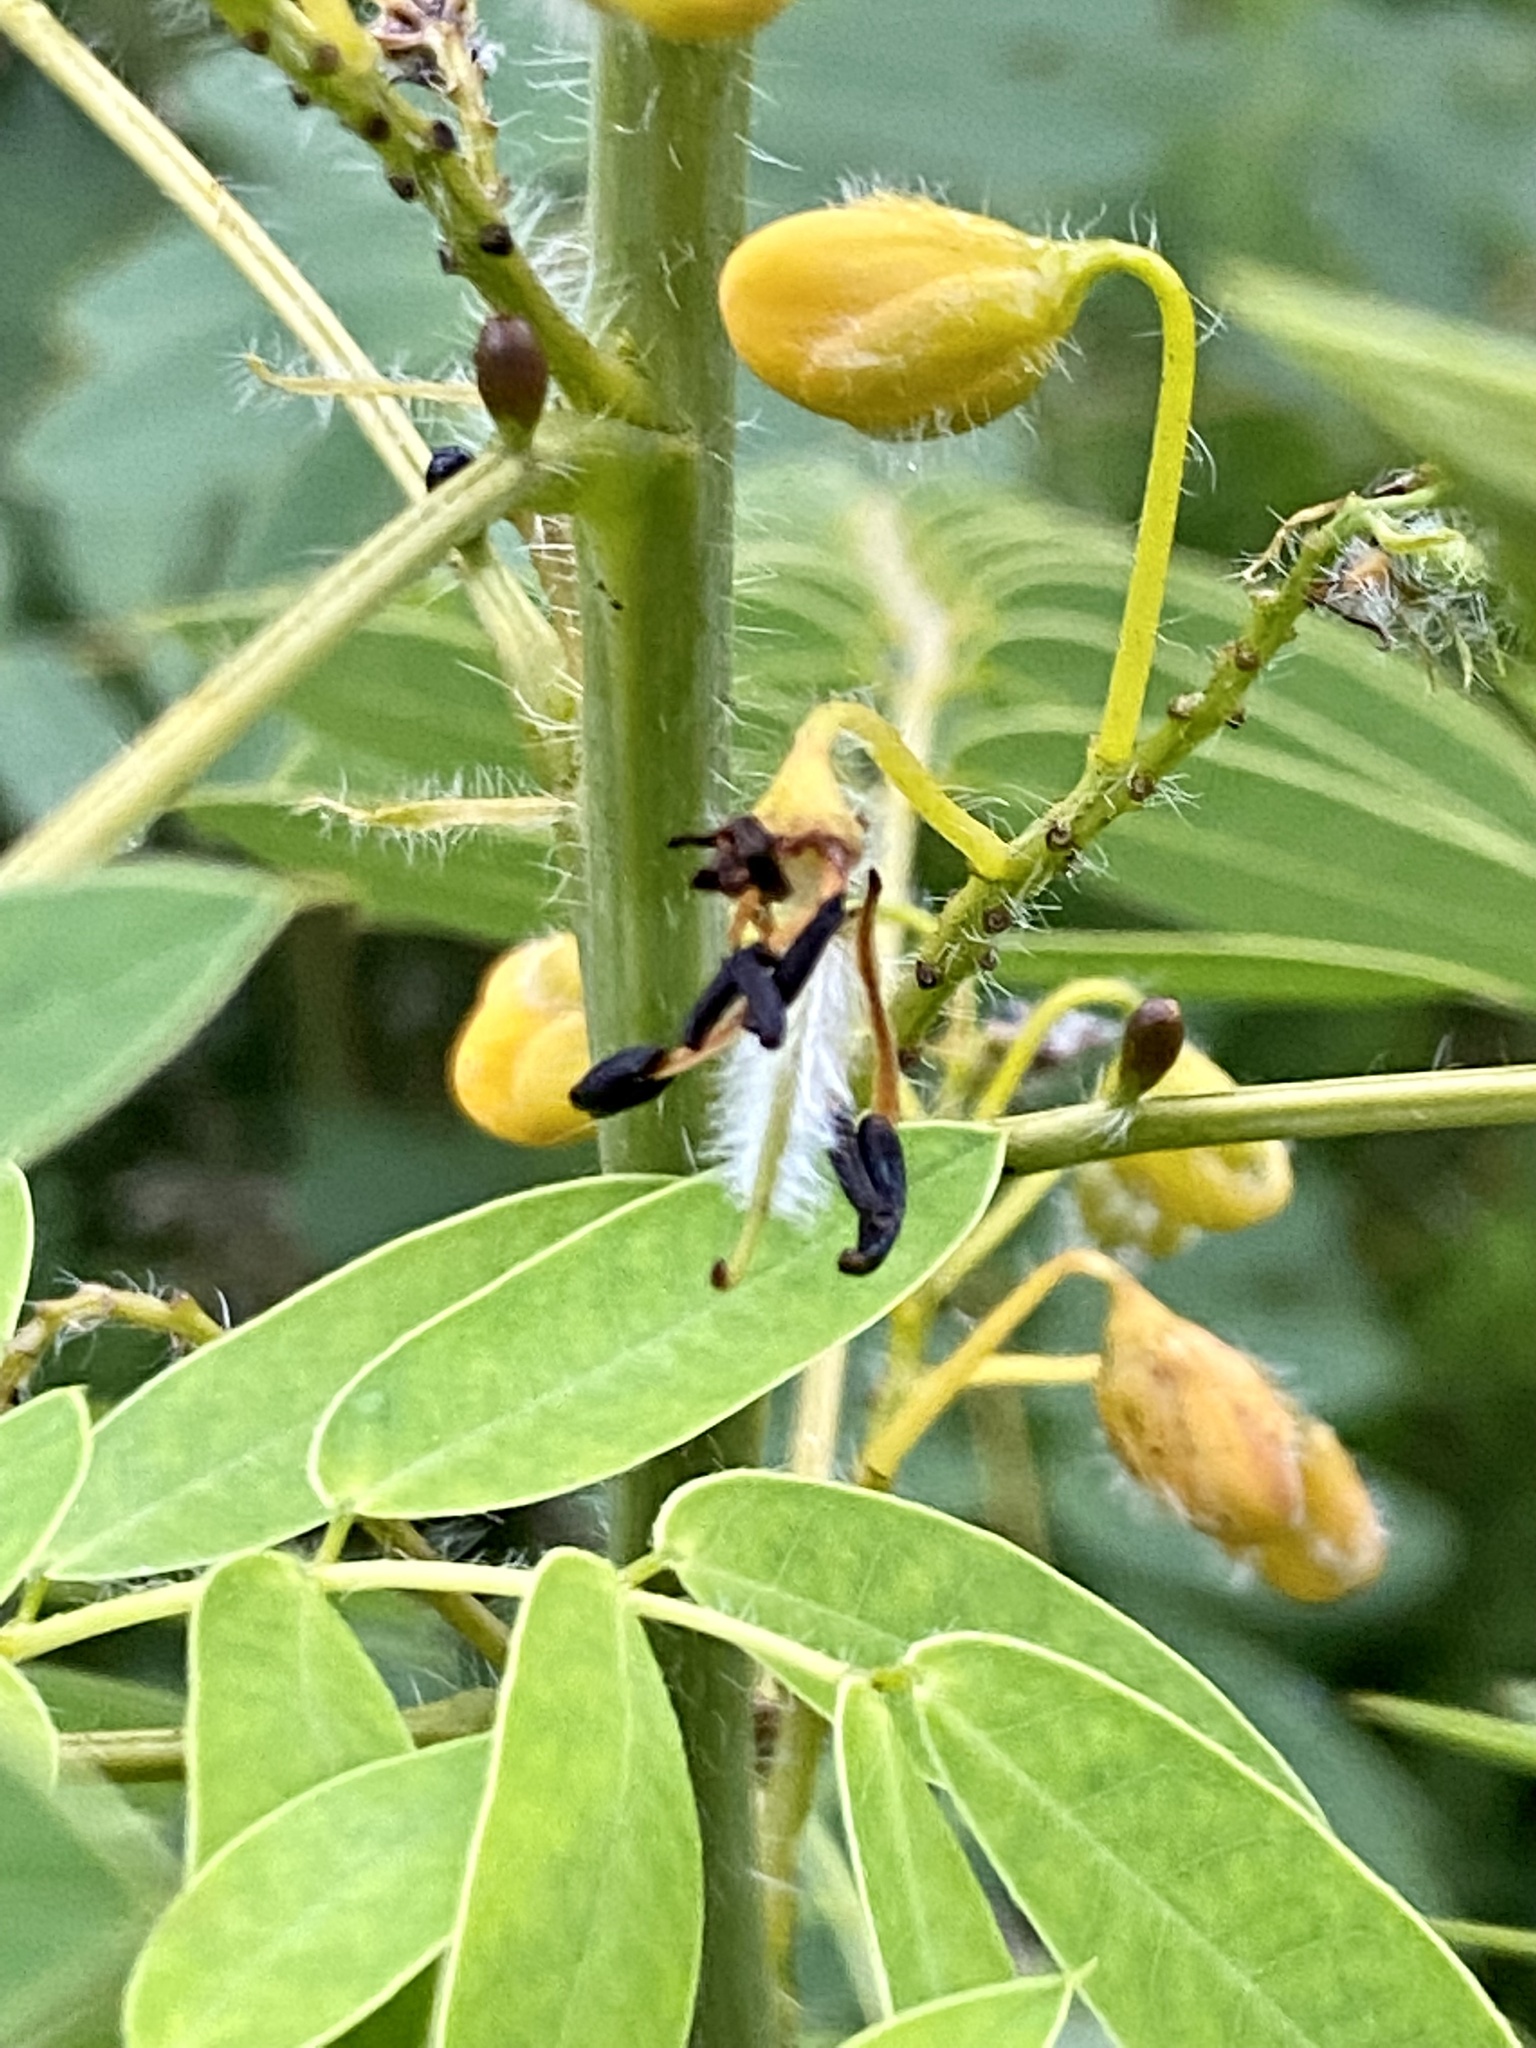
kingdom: Plantae
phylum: Tracheophyta
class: Magnoliopsida
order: Fabales
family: Fabaceae
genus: Senna
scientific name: Senna hebecarpa
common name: Wild senna
